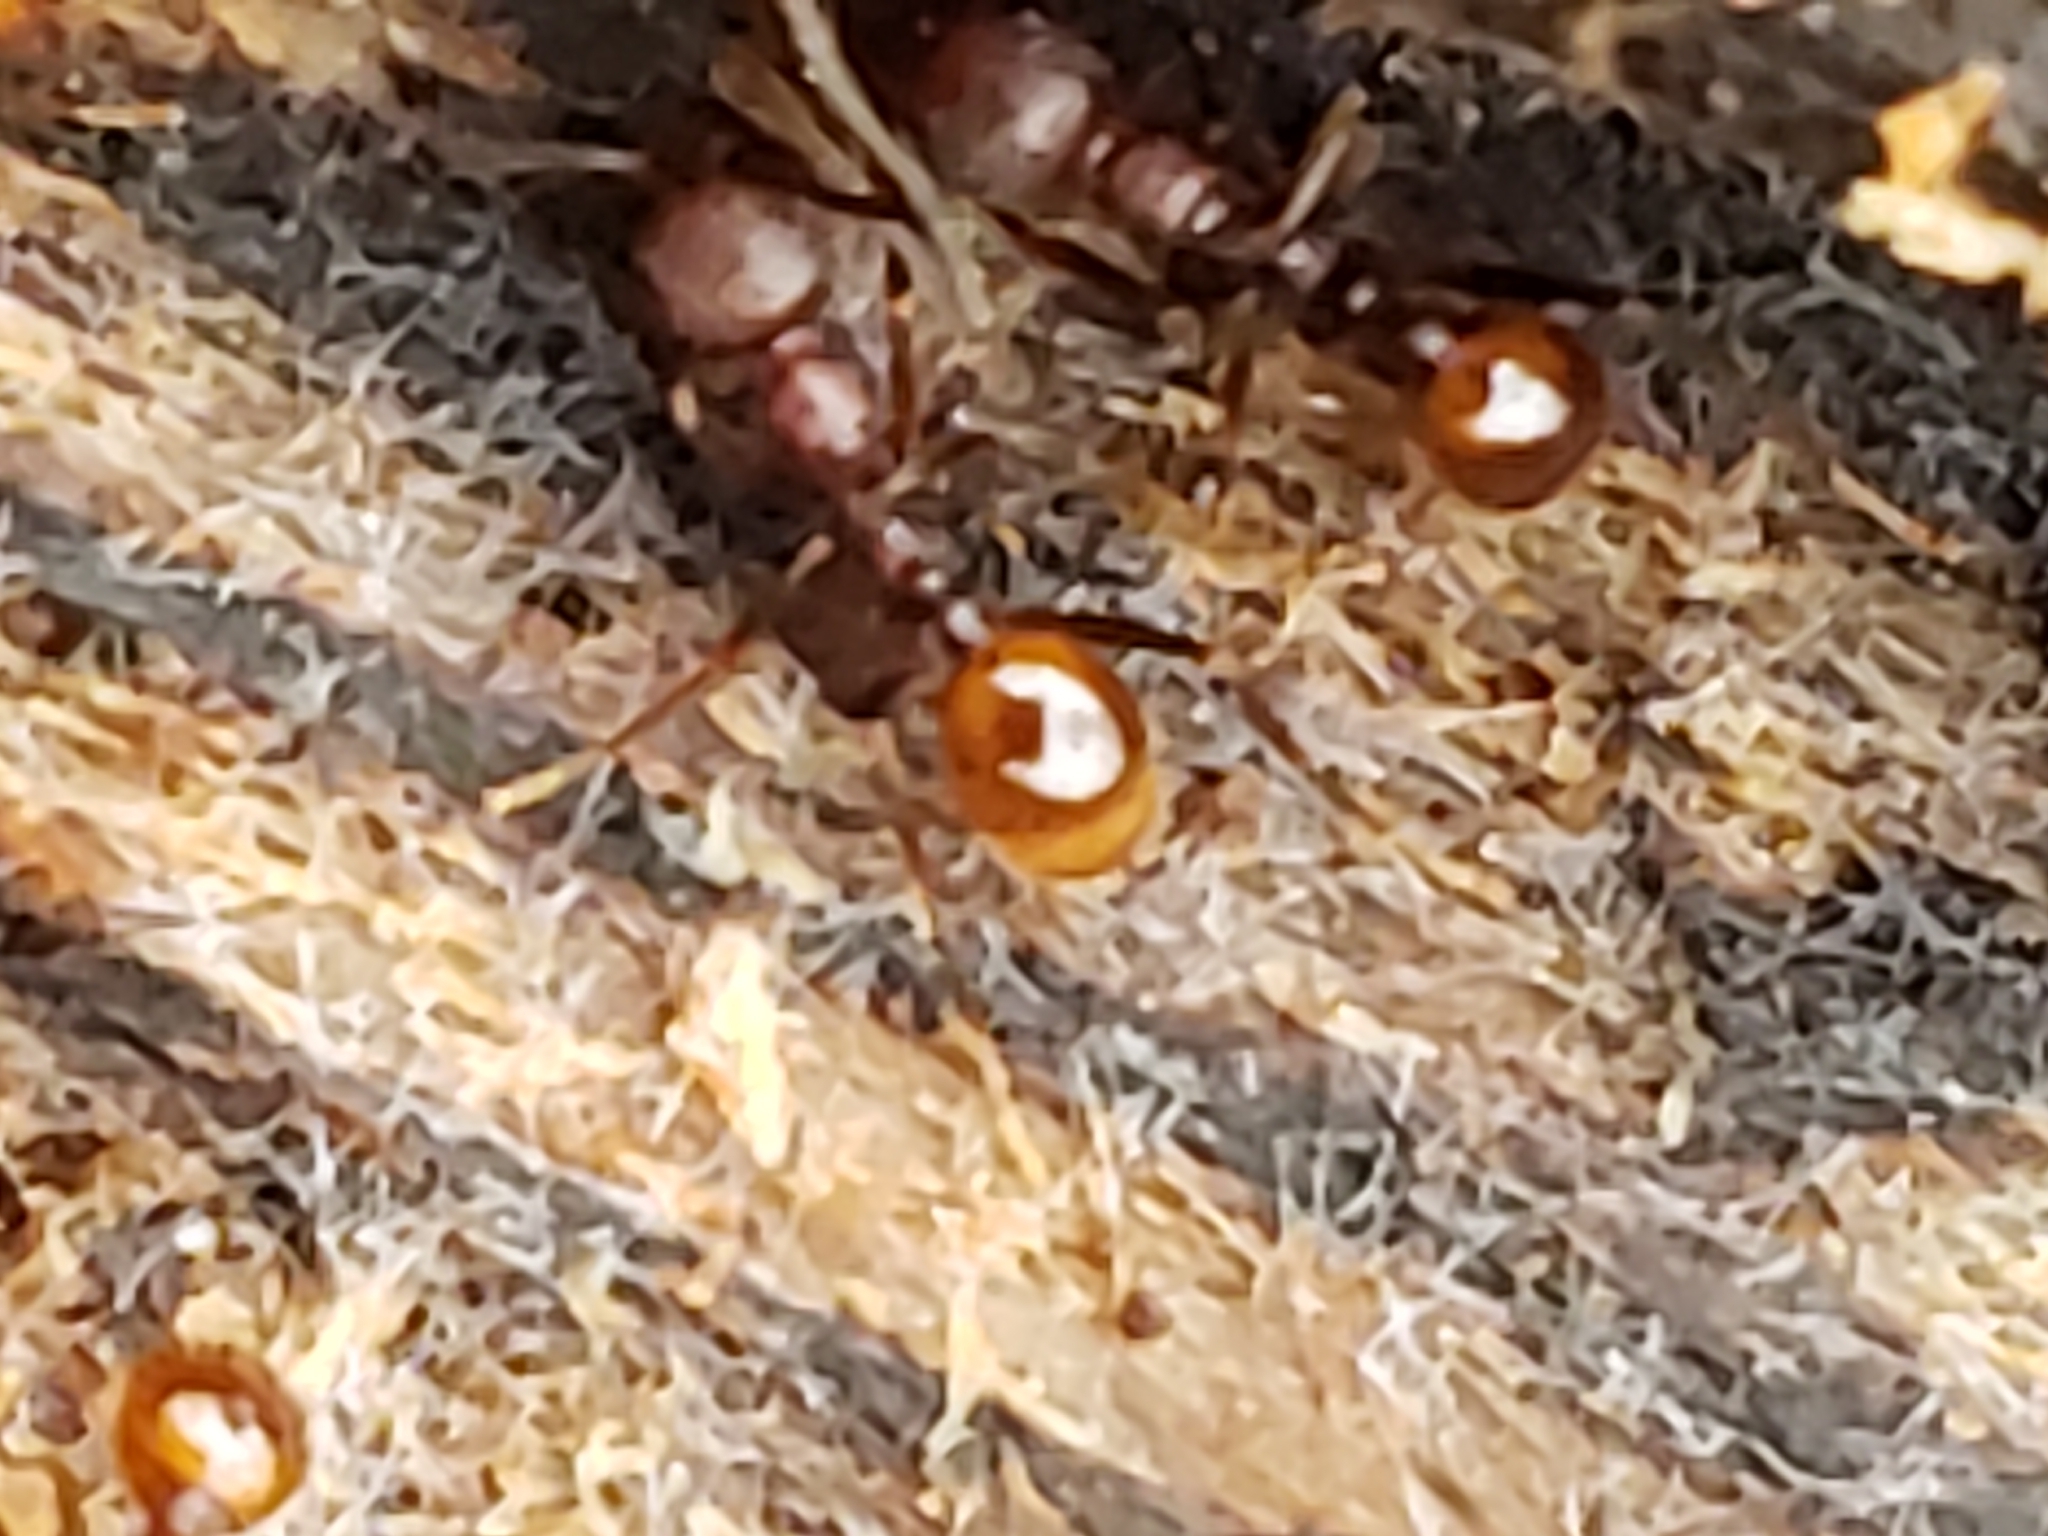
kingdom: Animalia
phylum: Arthropoda
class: Insecta
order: Hymenoptera
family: Formicidae
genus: Aphaenogaster
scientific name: Aphaenogaster fulva
